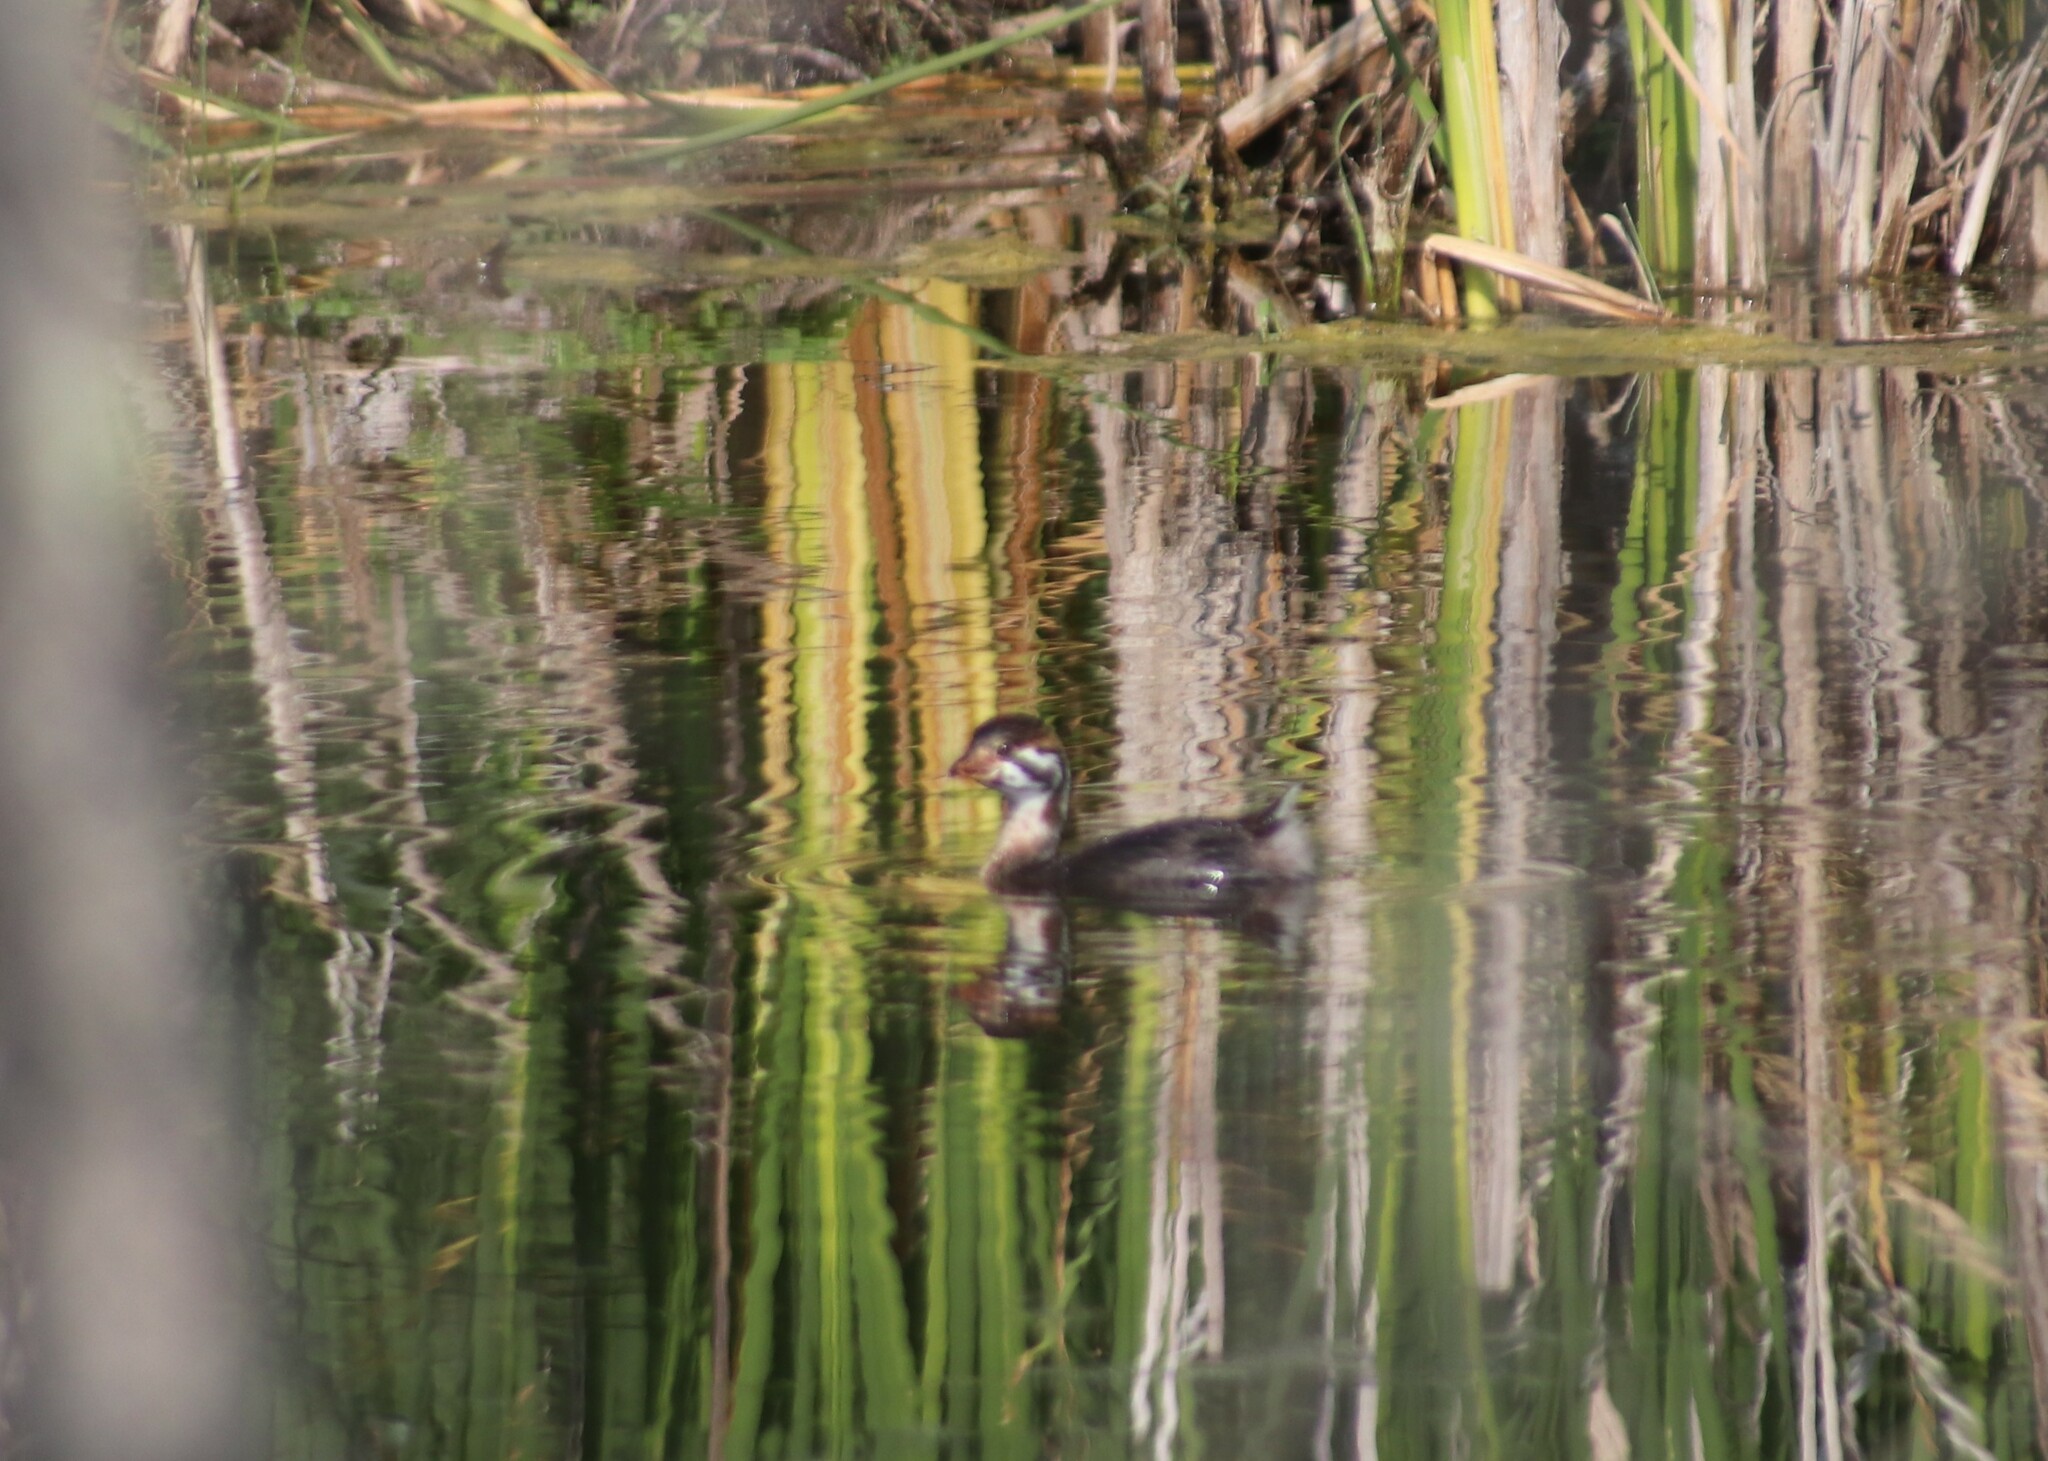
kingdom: Animalia
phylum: Chordata
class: Aves
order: Podicipediformes
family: Podicipedidae
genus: Podilymbus
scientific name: Podilymbus podiceps
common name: Pied-billed grebe
